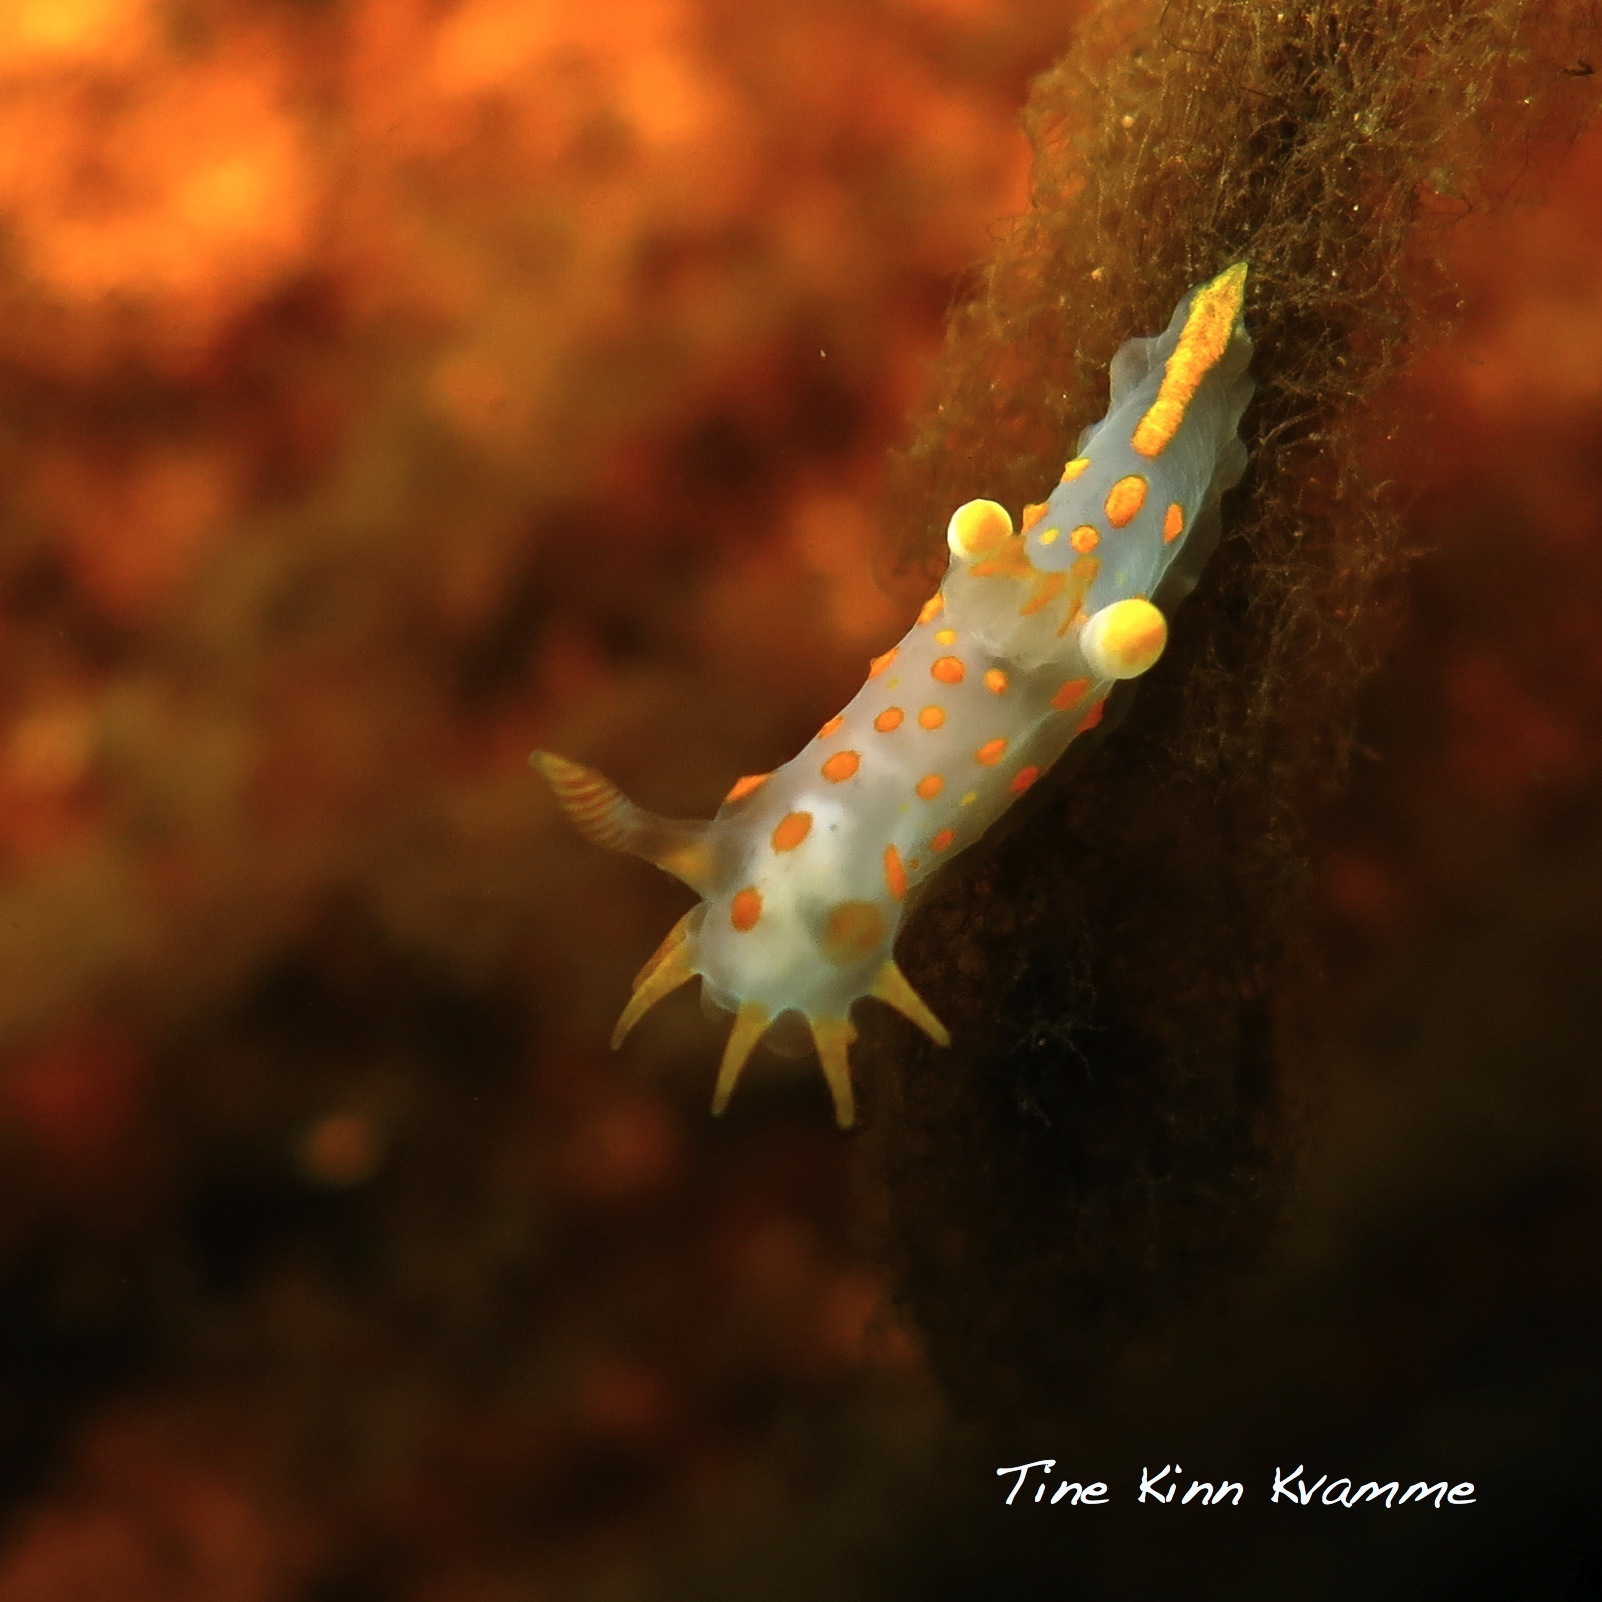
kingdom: Animalia
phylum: Mollusca
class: Gastropoda
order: Nudibranchia
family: Polyceridae
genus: Polycera
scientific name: Polycera quadrilineata
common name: Four-striped polycera
